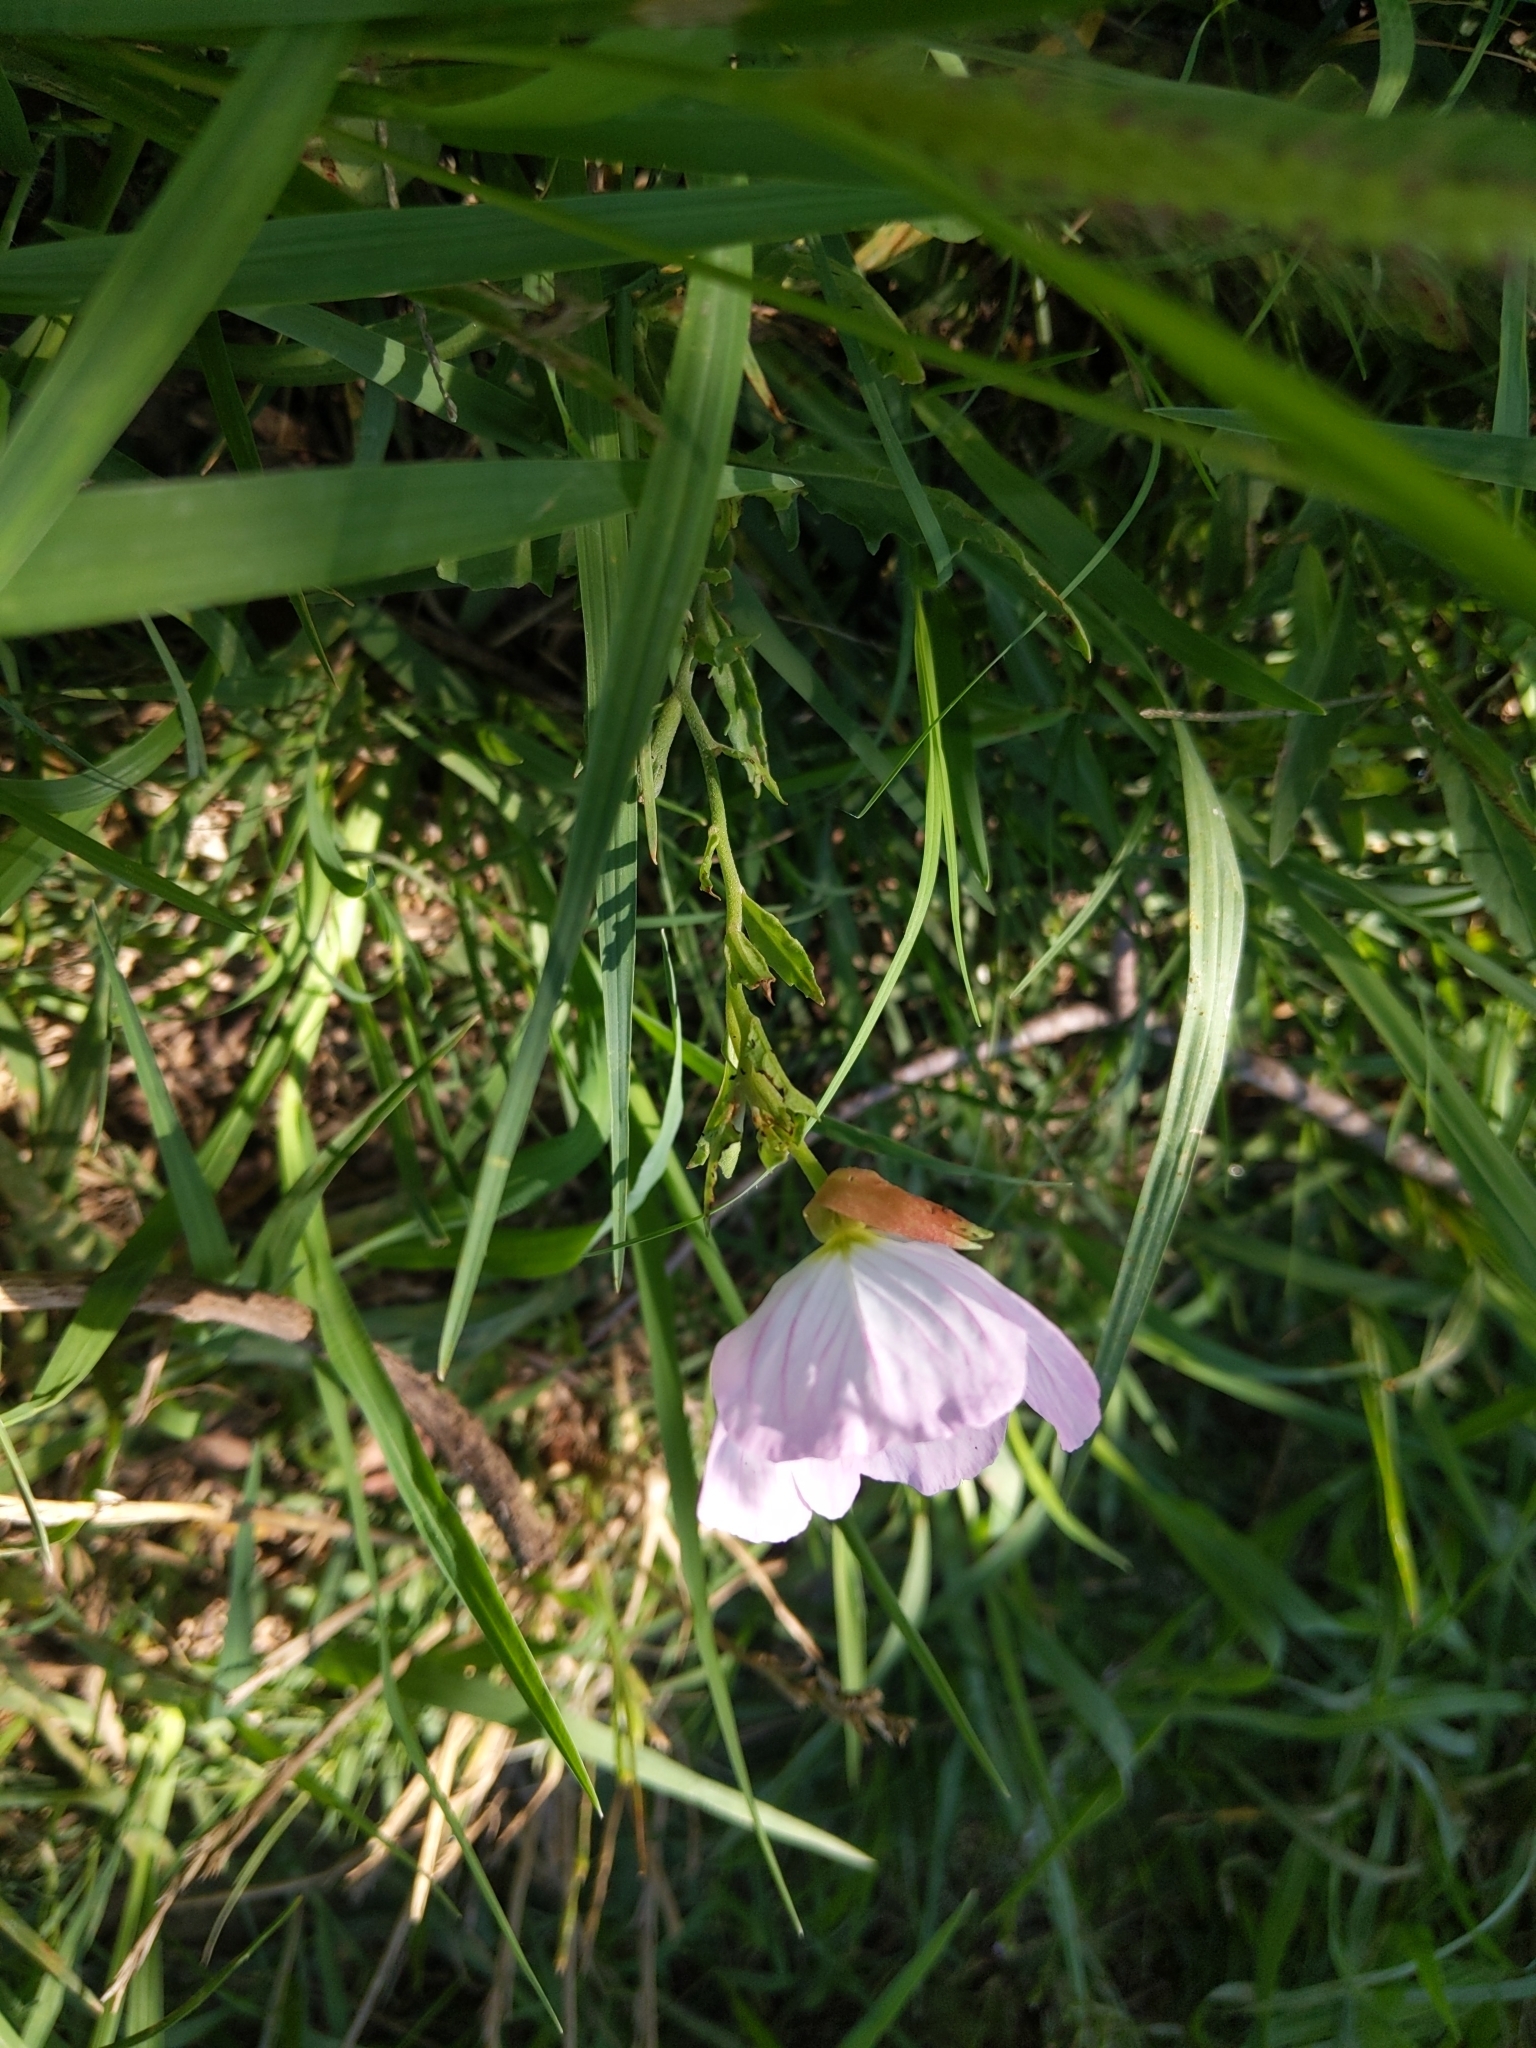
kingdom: Plantae
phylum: Tracheophyta
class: Magnoliopsida
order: Myrtales
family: Onagraceae
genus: Oenothera
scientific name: Oenothera speciosa
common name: White evening-primrose
